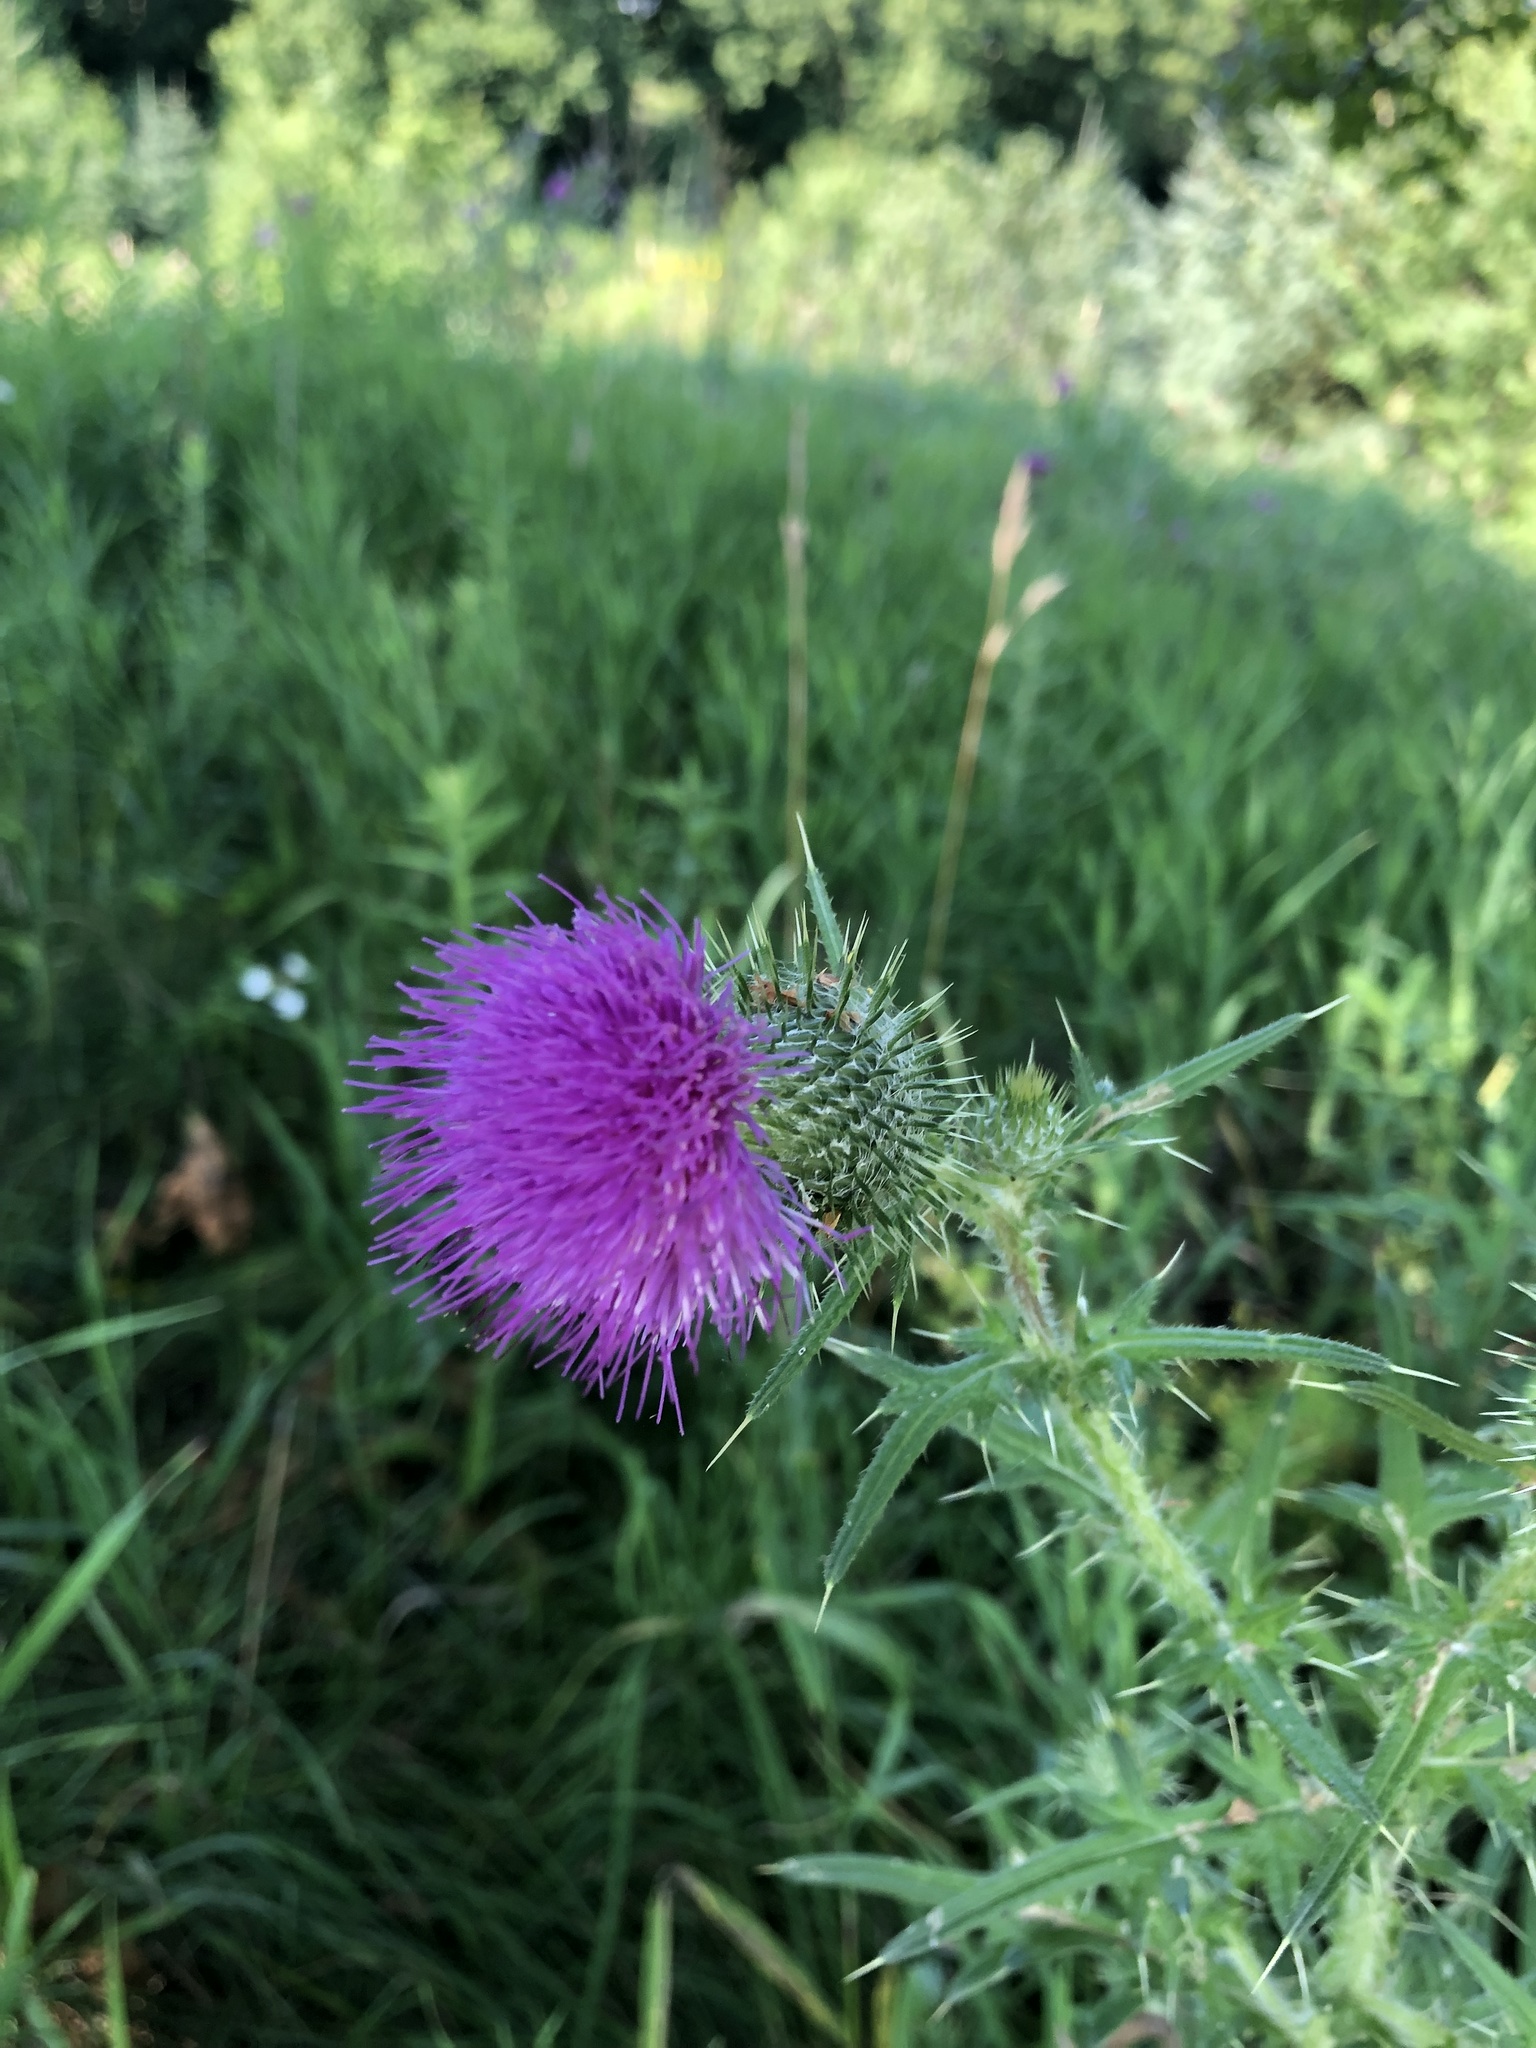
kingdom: Plantae
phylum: Tracheophyta
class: Magnoliopsida
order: Asterales
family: Asteraceae
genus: Cirsium
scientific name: Cirsium vulgare
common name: Bull thistle
